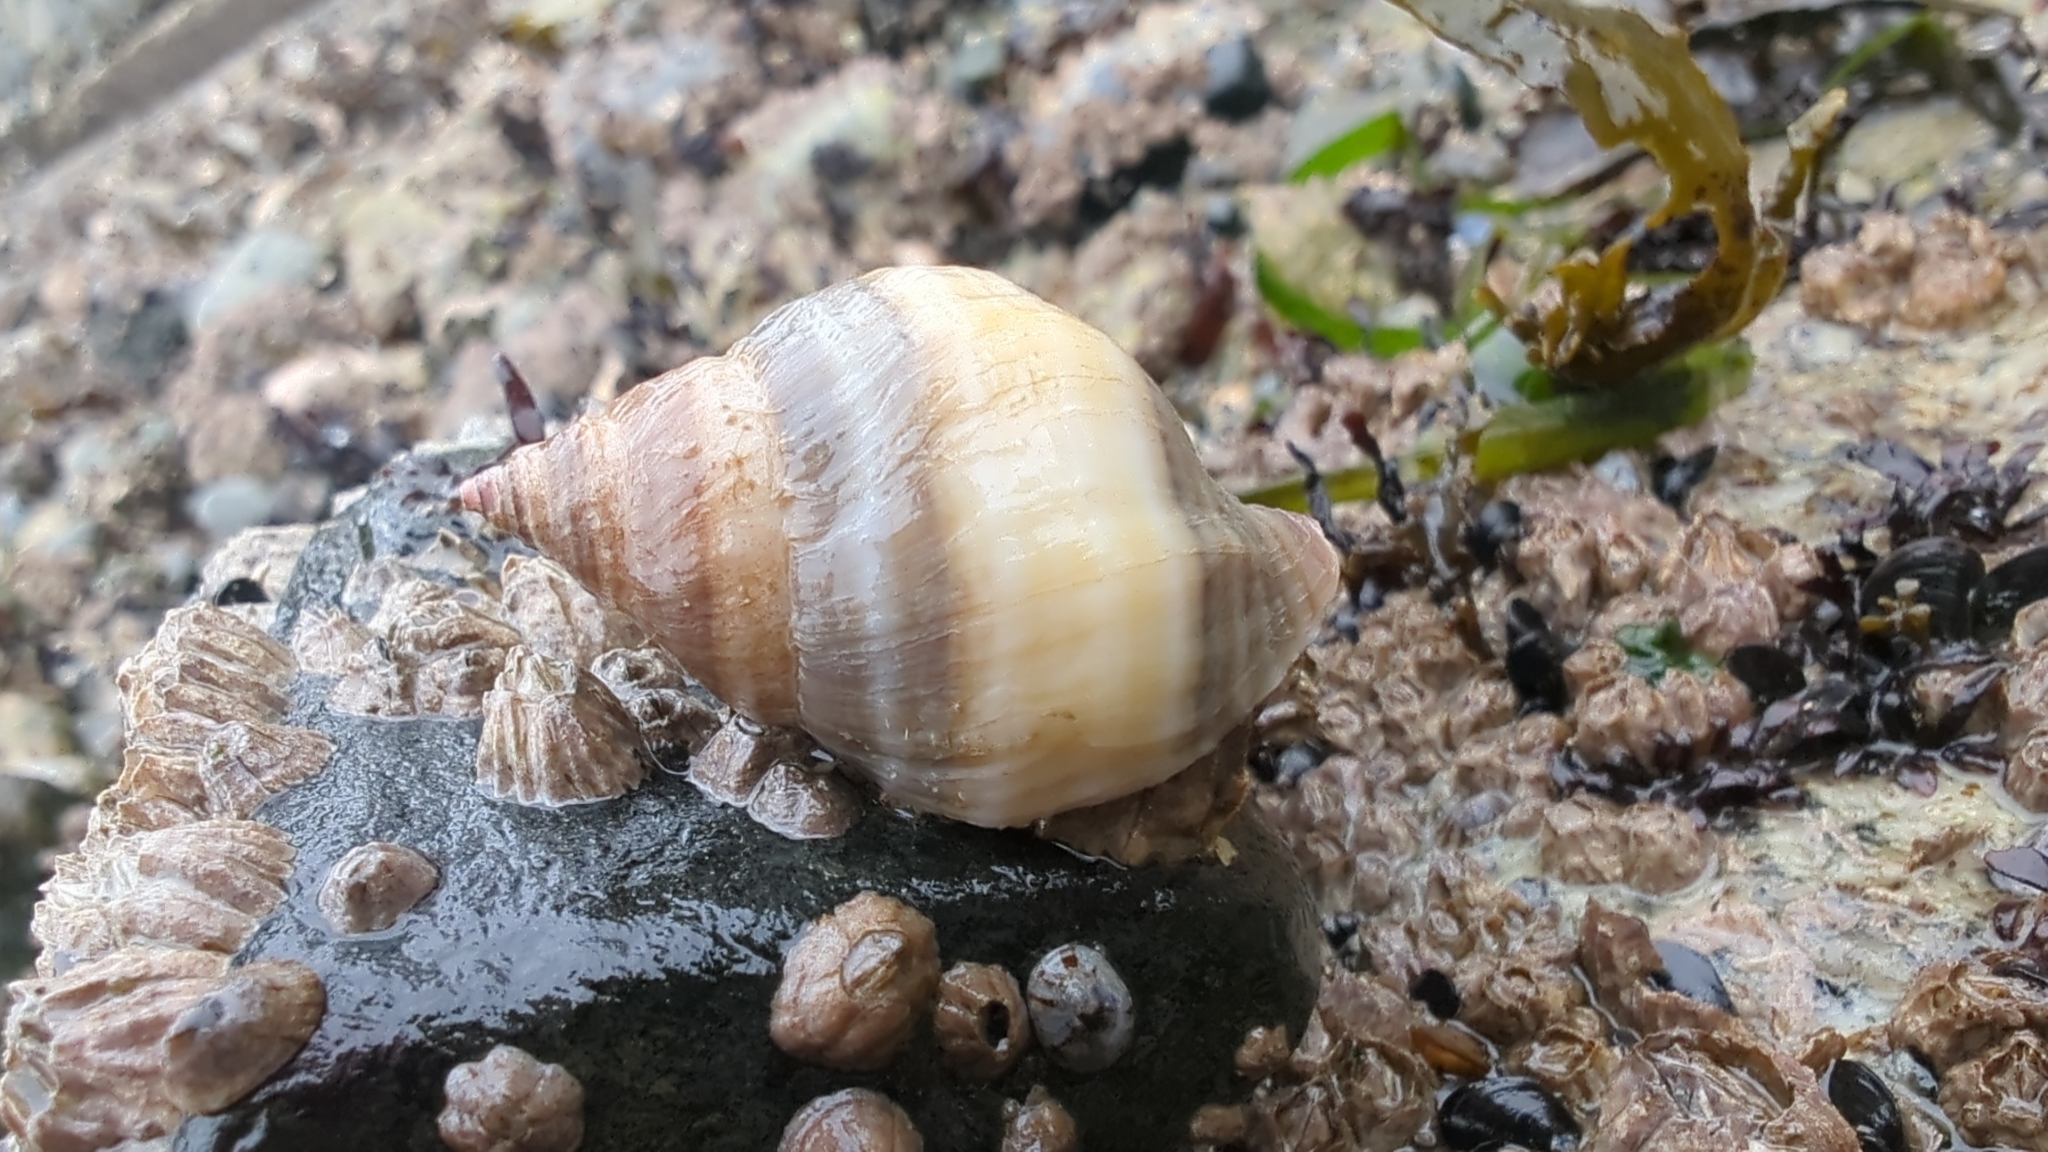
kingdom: Animalia
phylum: Mollusca
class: Gastropoda
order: Neogastropoda
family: Muricidae
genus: Nucella
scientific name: Nucella lamellosa
